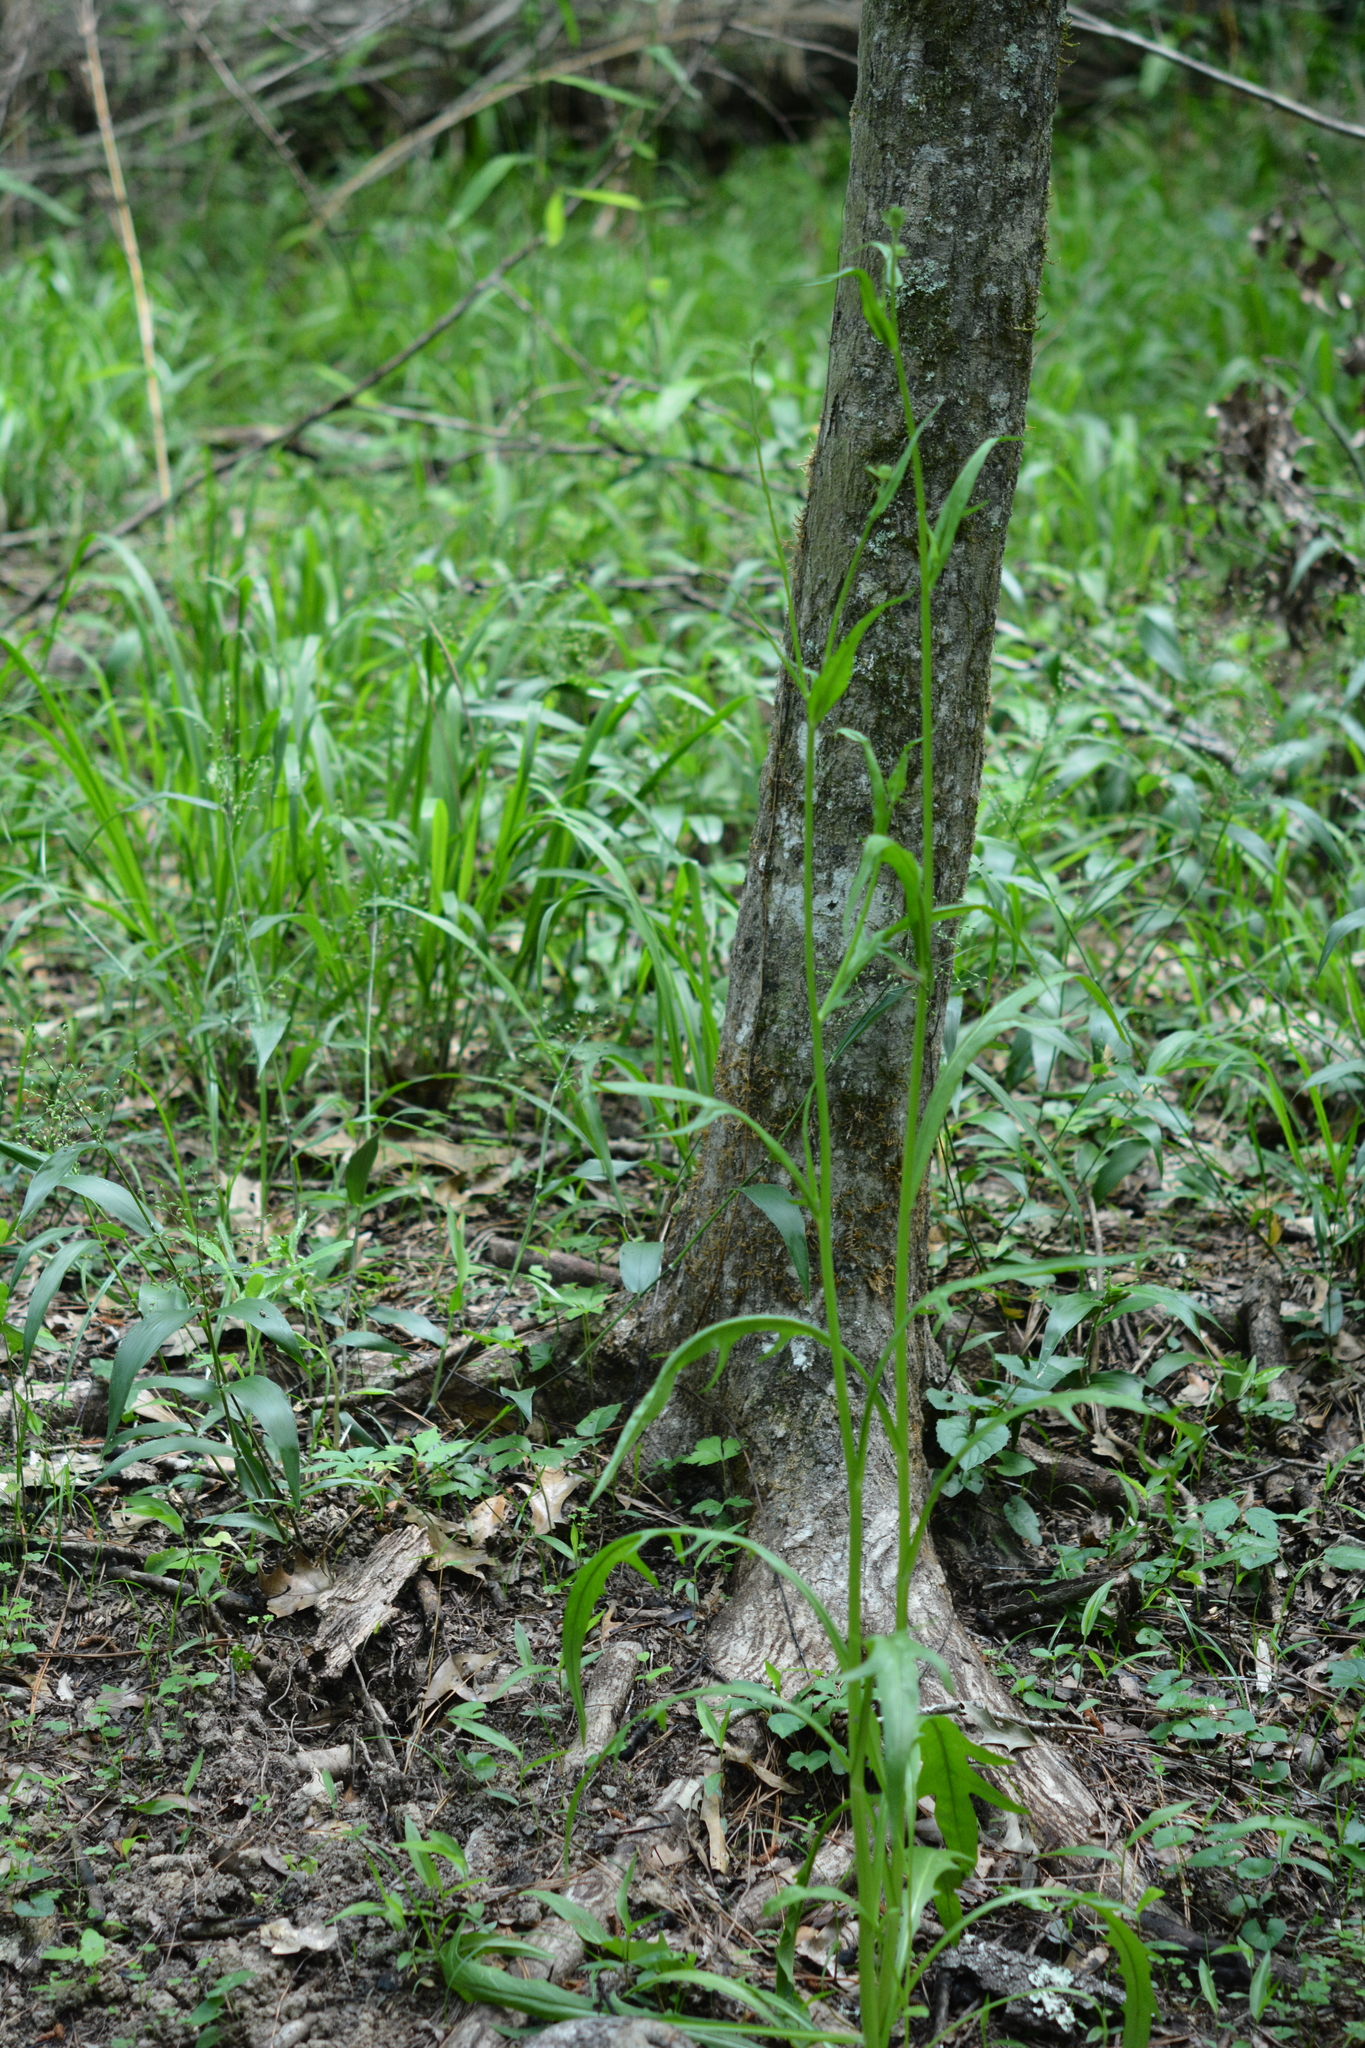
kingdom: Plantae
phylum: Tracheophyta
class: Magnoliopsida
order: Asterales
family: Asteraceae
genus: Pyrrhopappus
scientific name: Pyrrhopappus carolinianus
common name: Carolina desert-chicory
